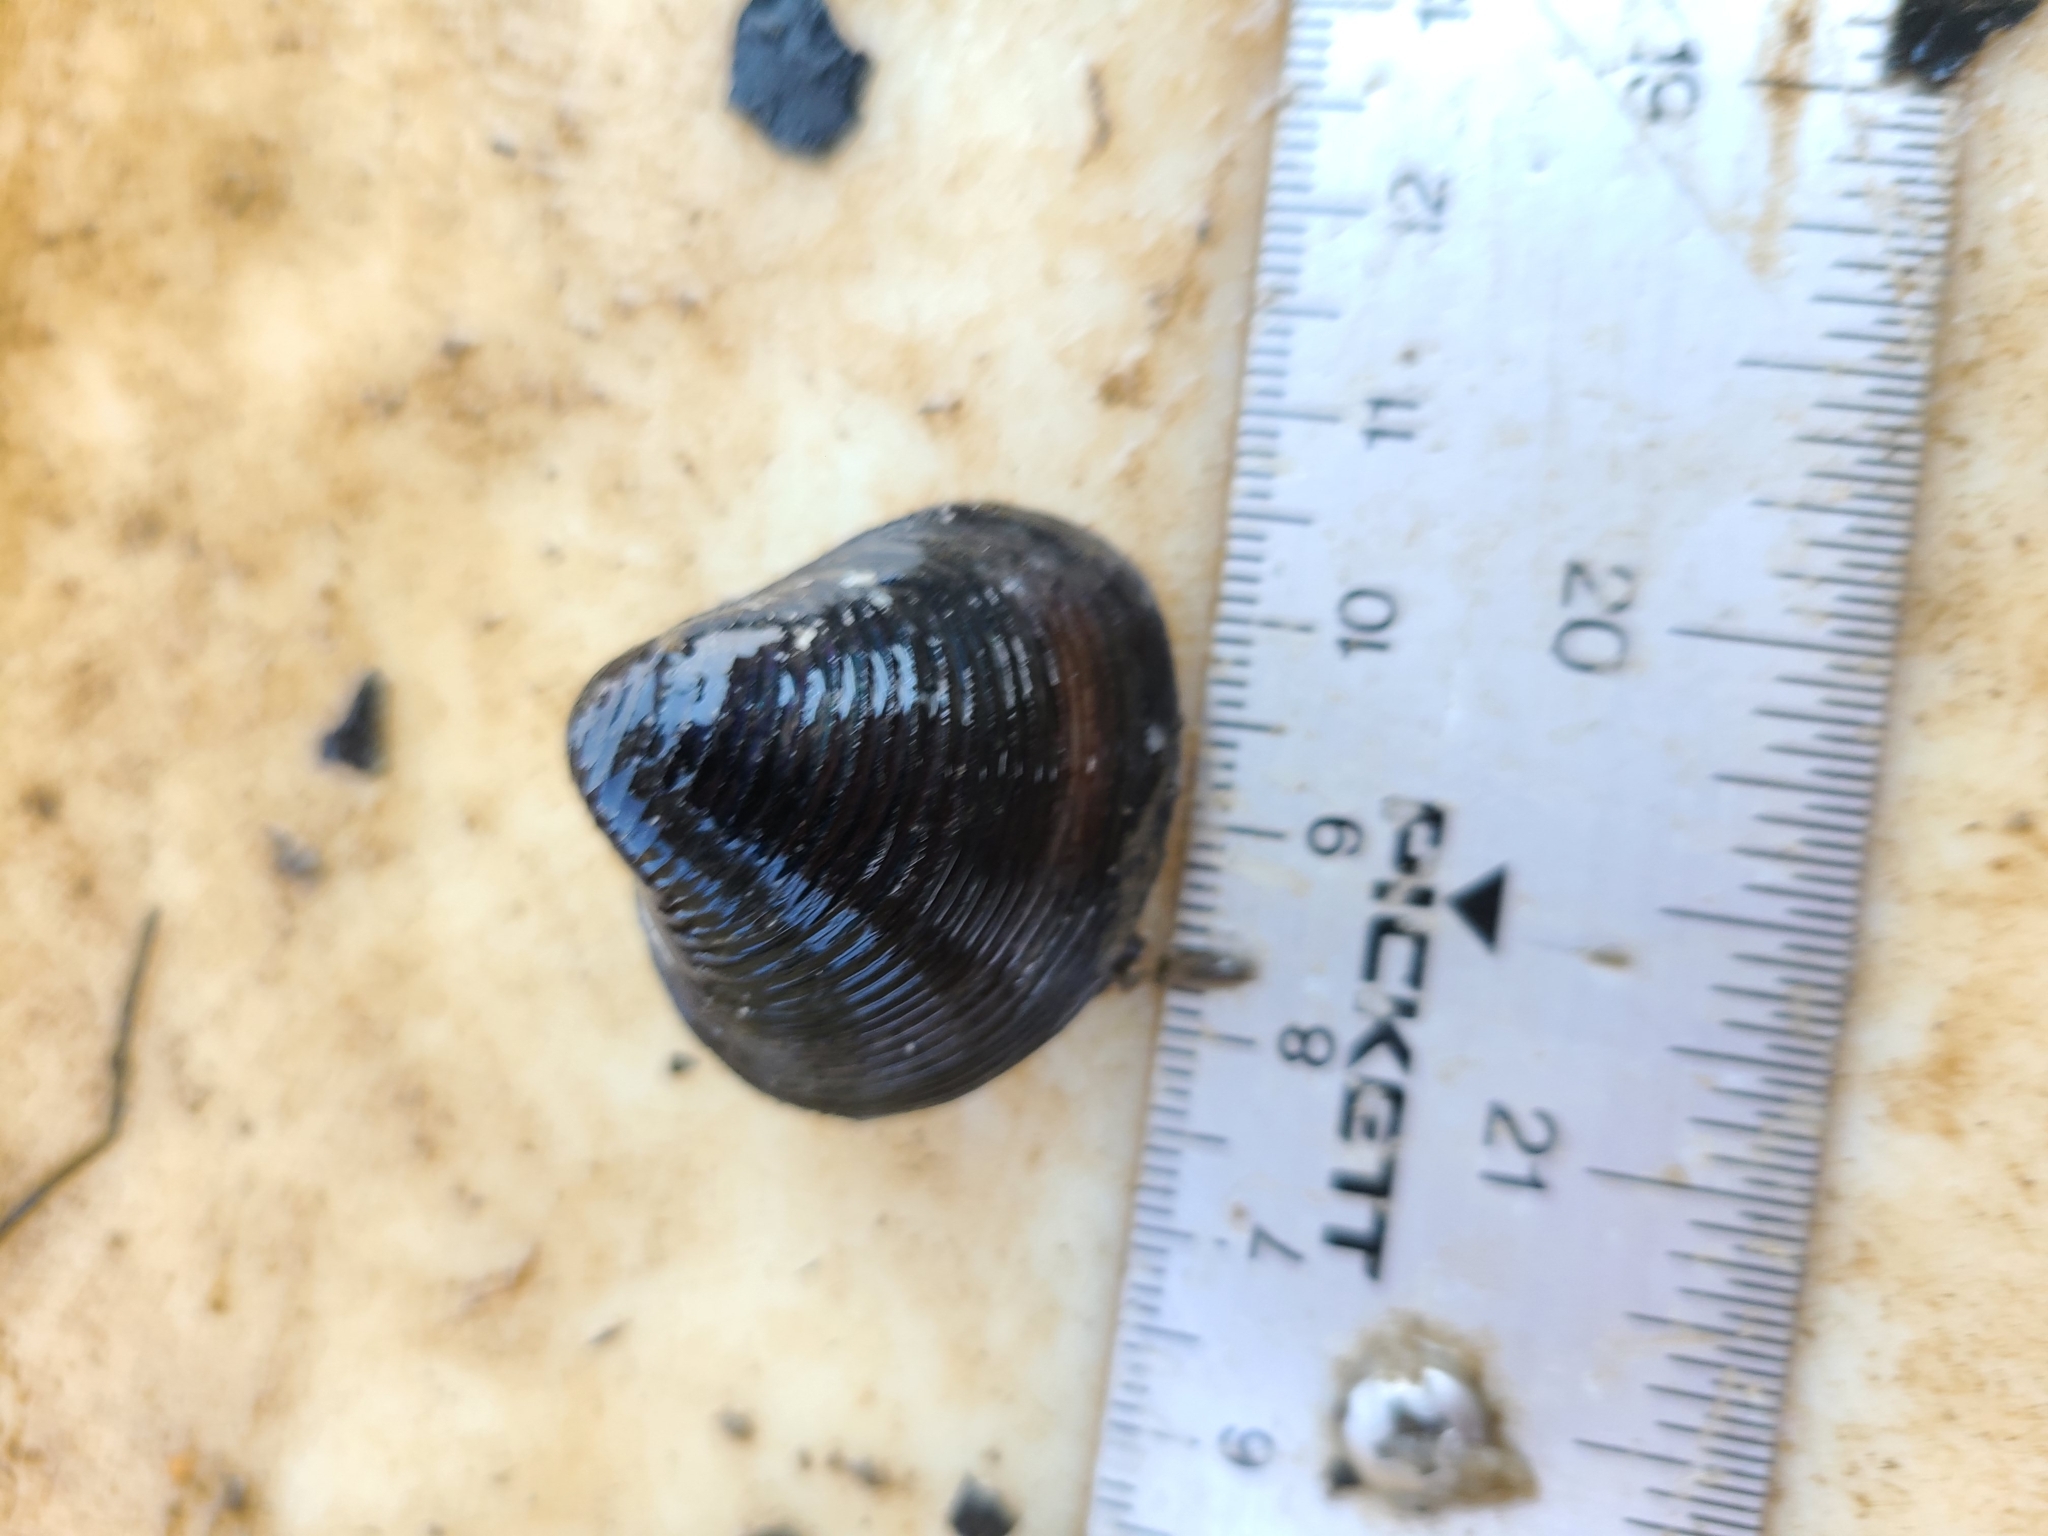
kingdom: Animalia
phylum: Mollusca
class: Bivalvia
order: Venerida
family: Cyrenidae
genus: Corbicula
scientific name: Corbicula fluminea
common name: Asian clam
